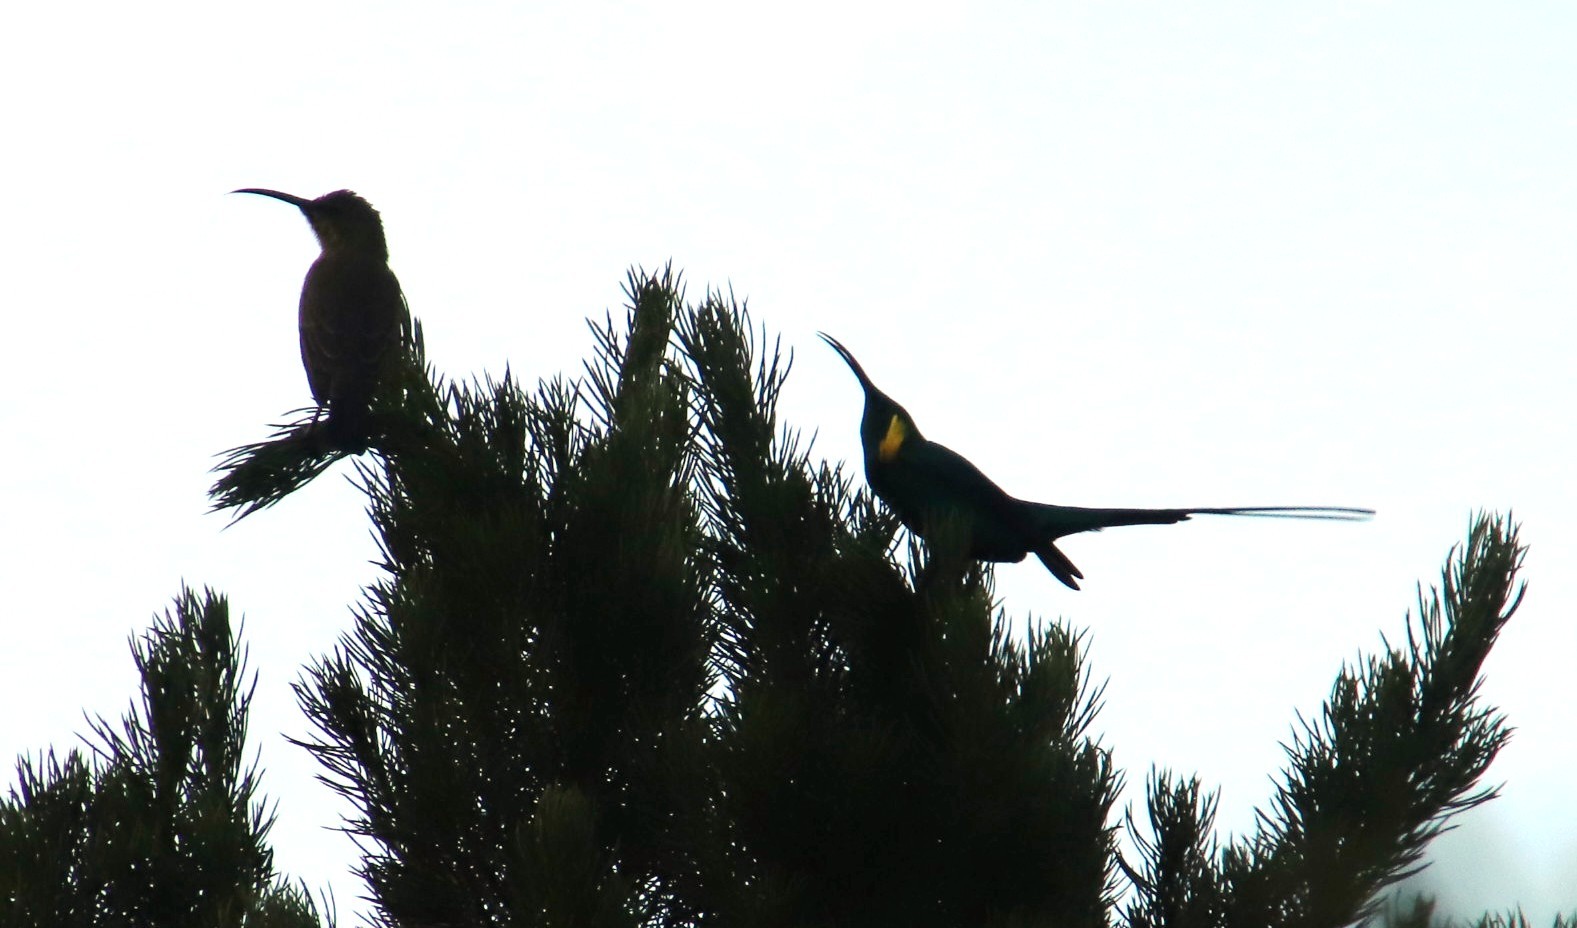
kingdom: Animalia
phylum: Chordata
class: Aves
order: Passeriformes
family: Nectariniidae
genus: Nectarinia
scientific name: Nectarinia famosa
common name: Malachite sunbird
